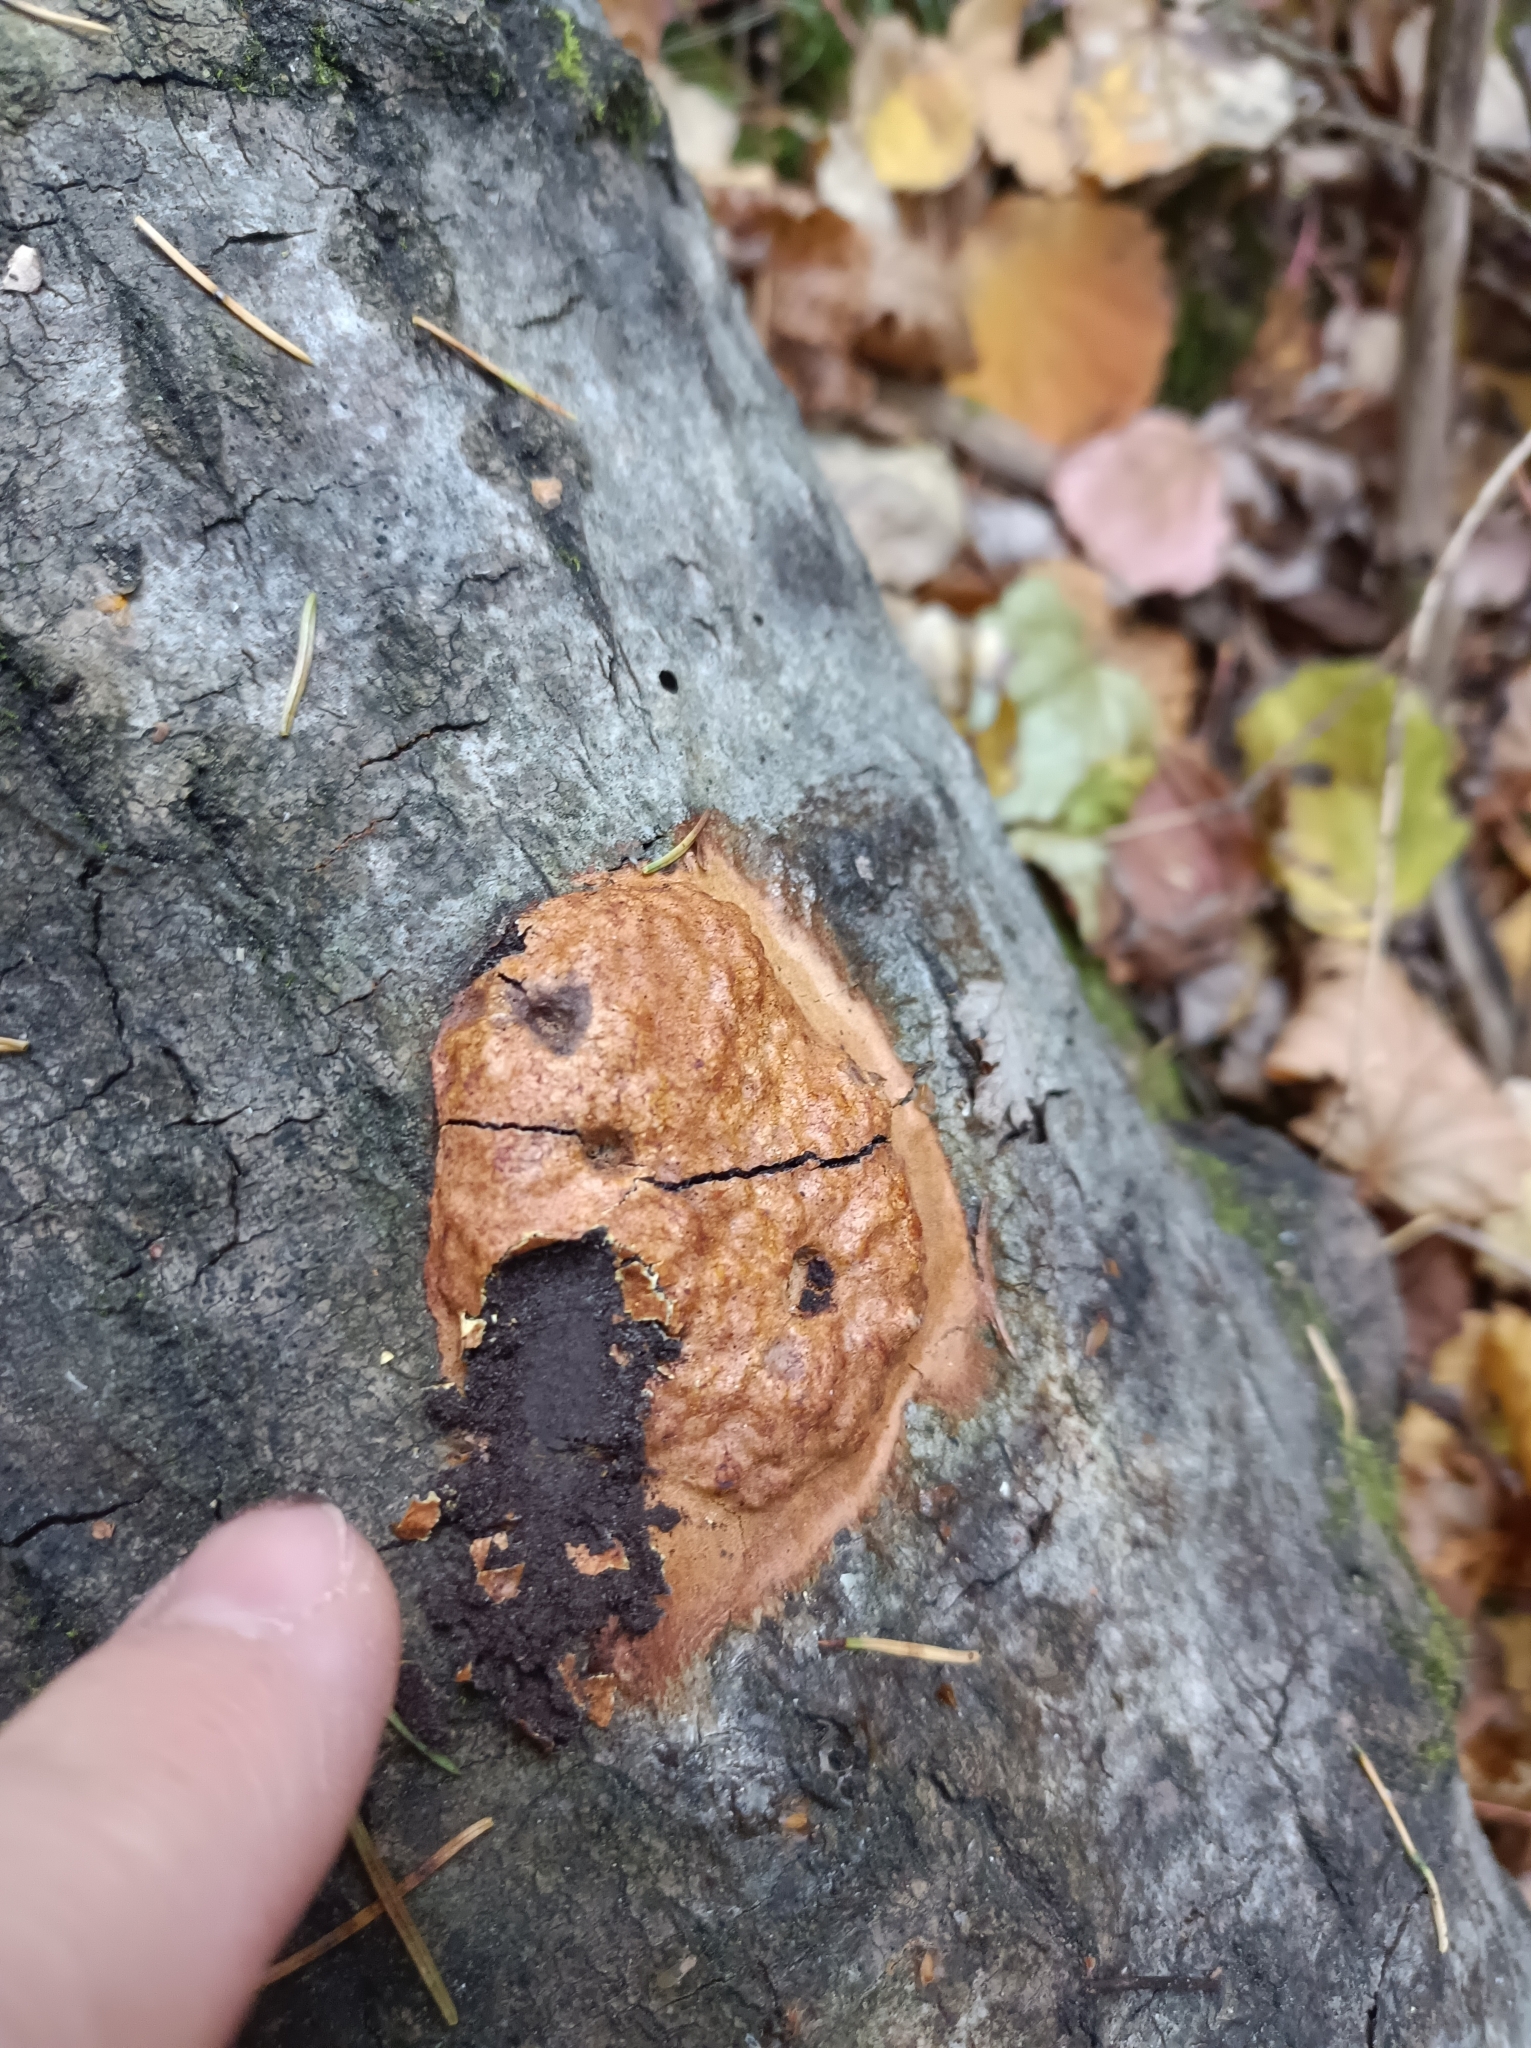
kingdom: Protozoa
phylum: Mycetozoa
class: Myxomycetes
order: Physarales
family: Physaraceae
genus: Fuligo
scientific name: Fuligo leviderma
